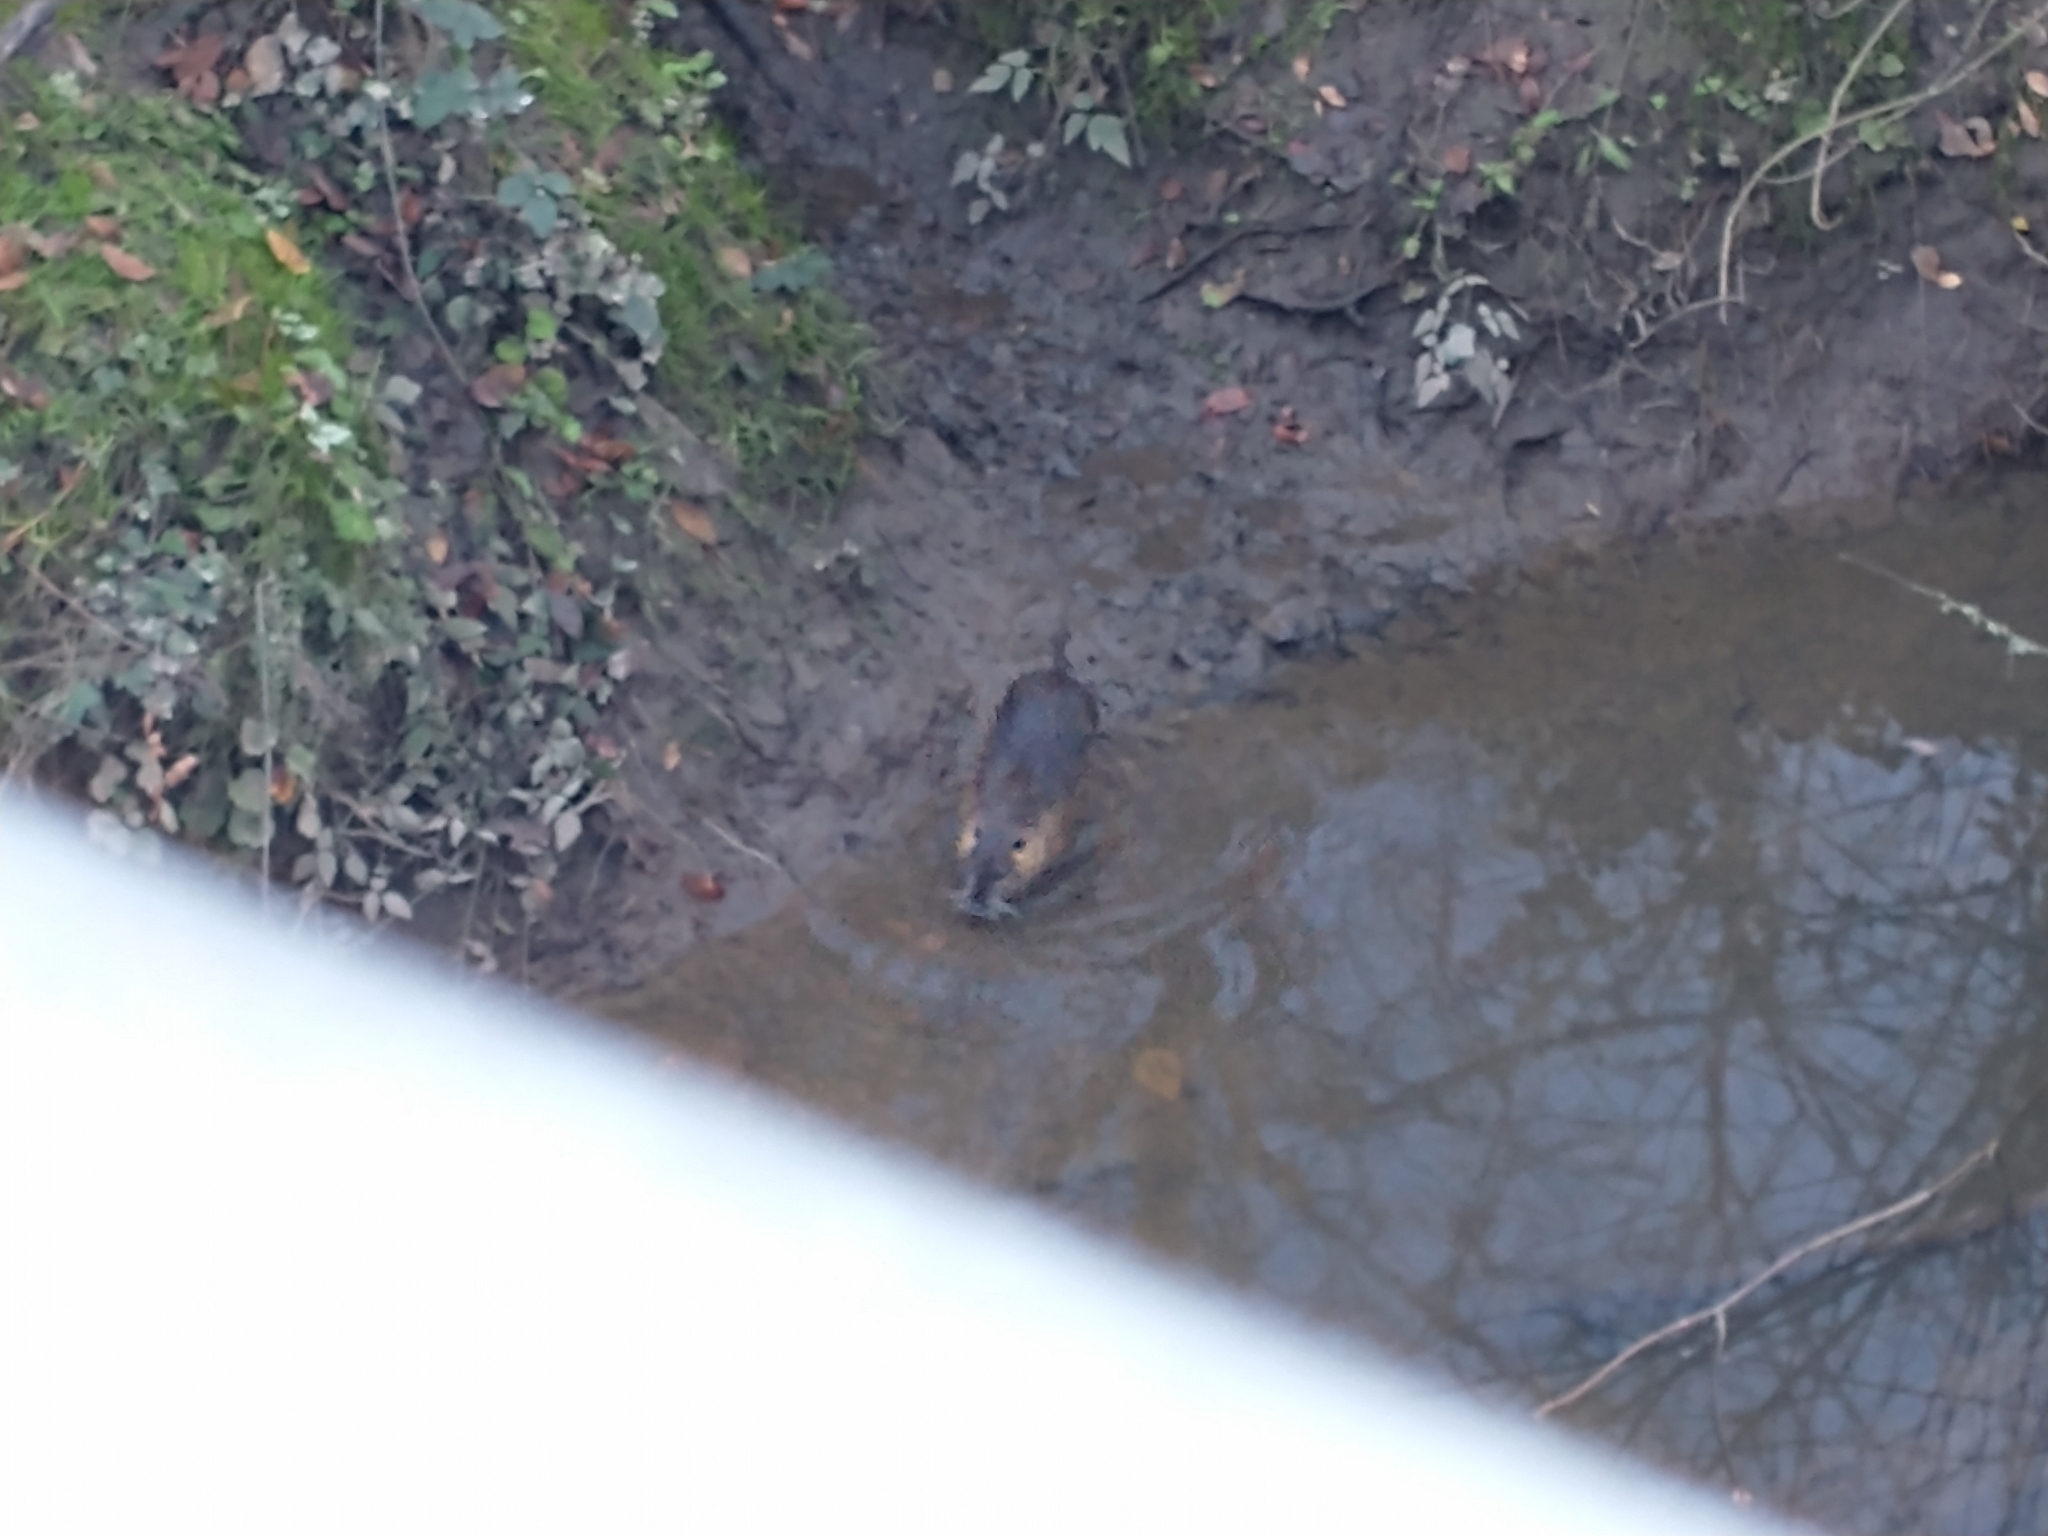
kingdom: Animalia
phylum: Chordata
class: Mammalia
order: Rodentia
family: Myocastoridae
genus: Myocastor
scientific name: Myocastor coypus
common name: Coypu
